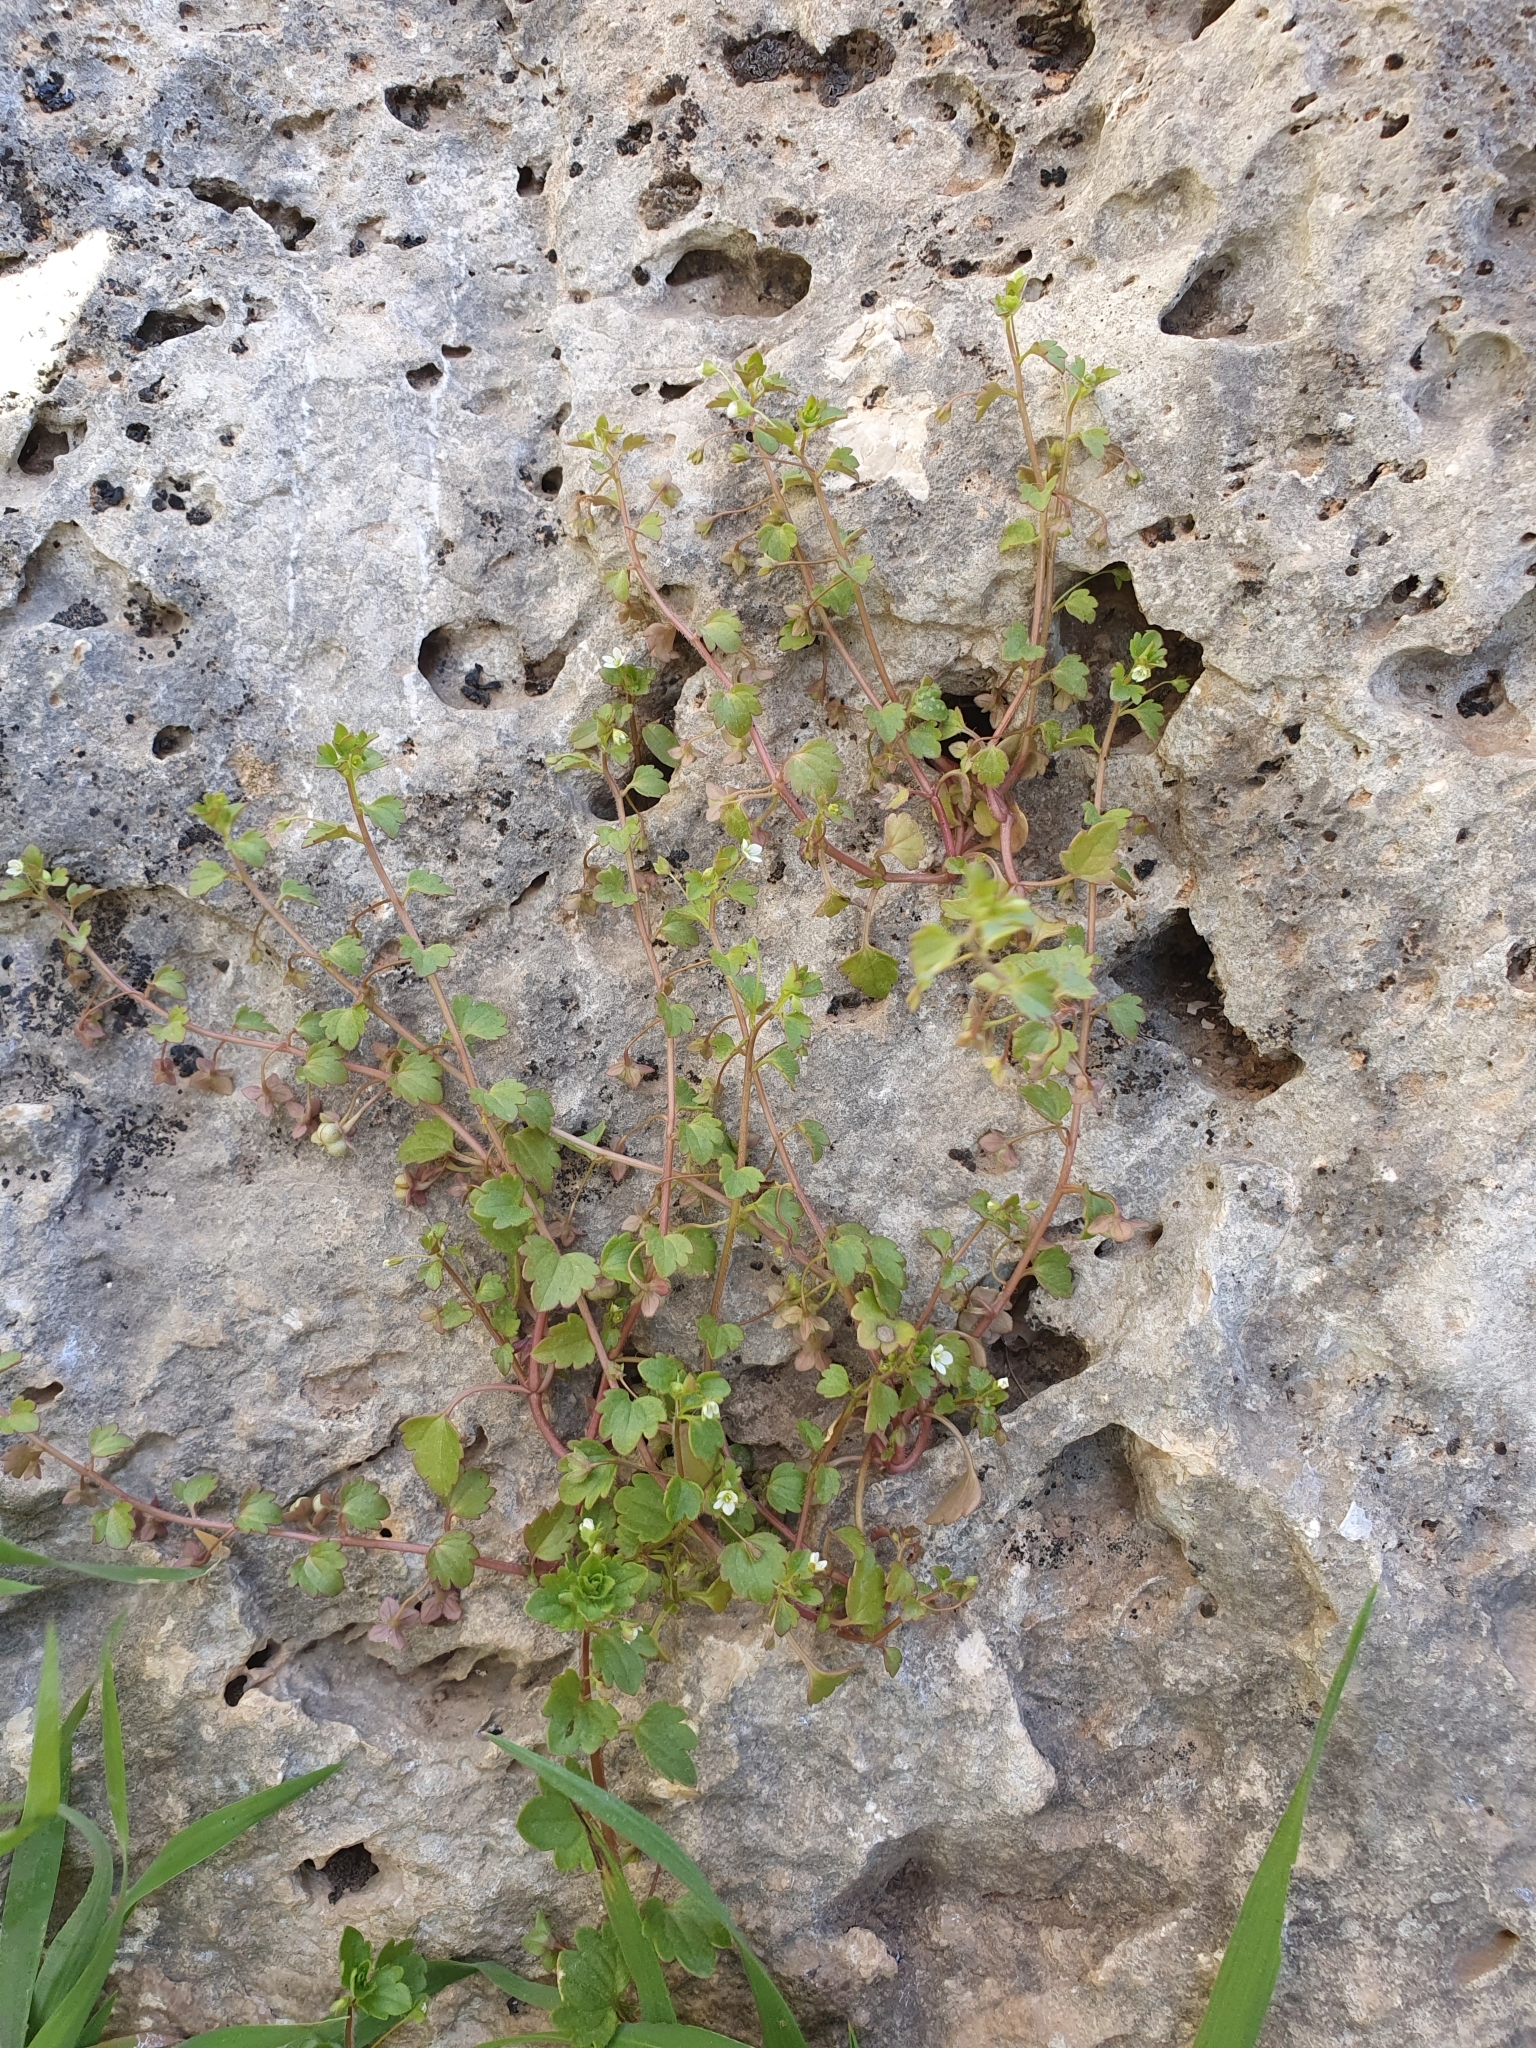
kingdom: Plantae
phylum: Tracheophyta
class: Magnoliopsida
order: Lamiales
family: Plantaginaceae
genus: Veronica
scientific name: Veronica cymbalaria
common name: Pale speedwell
